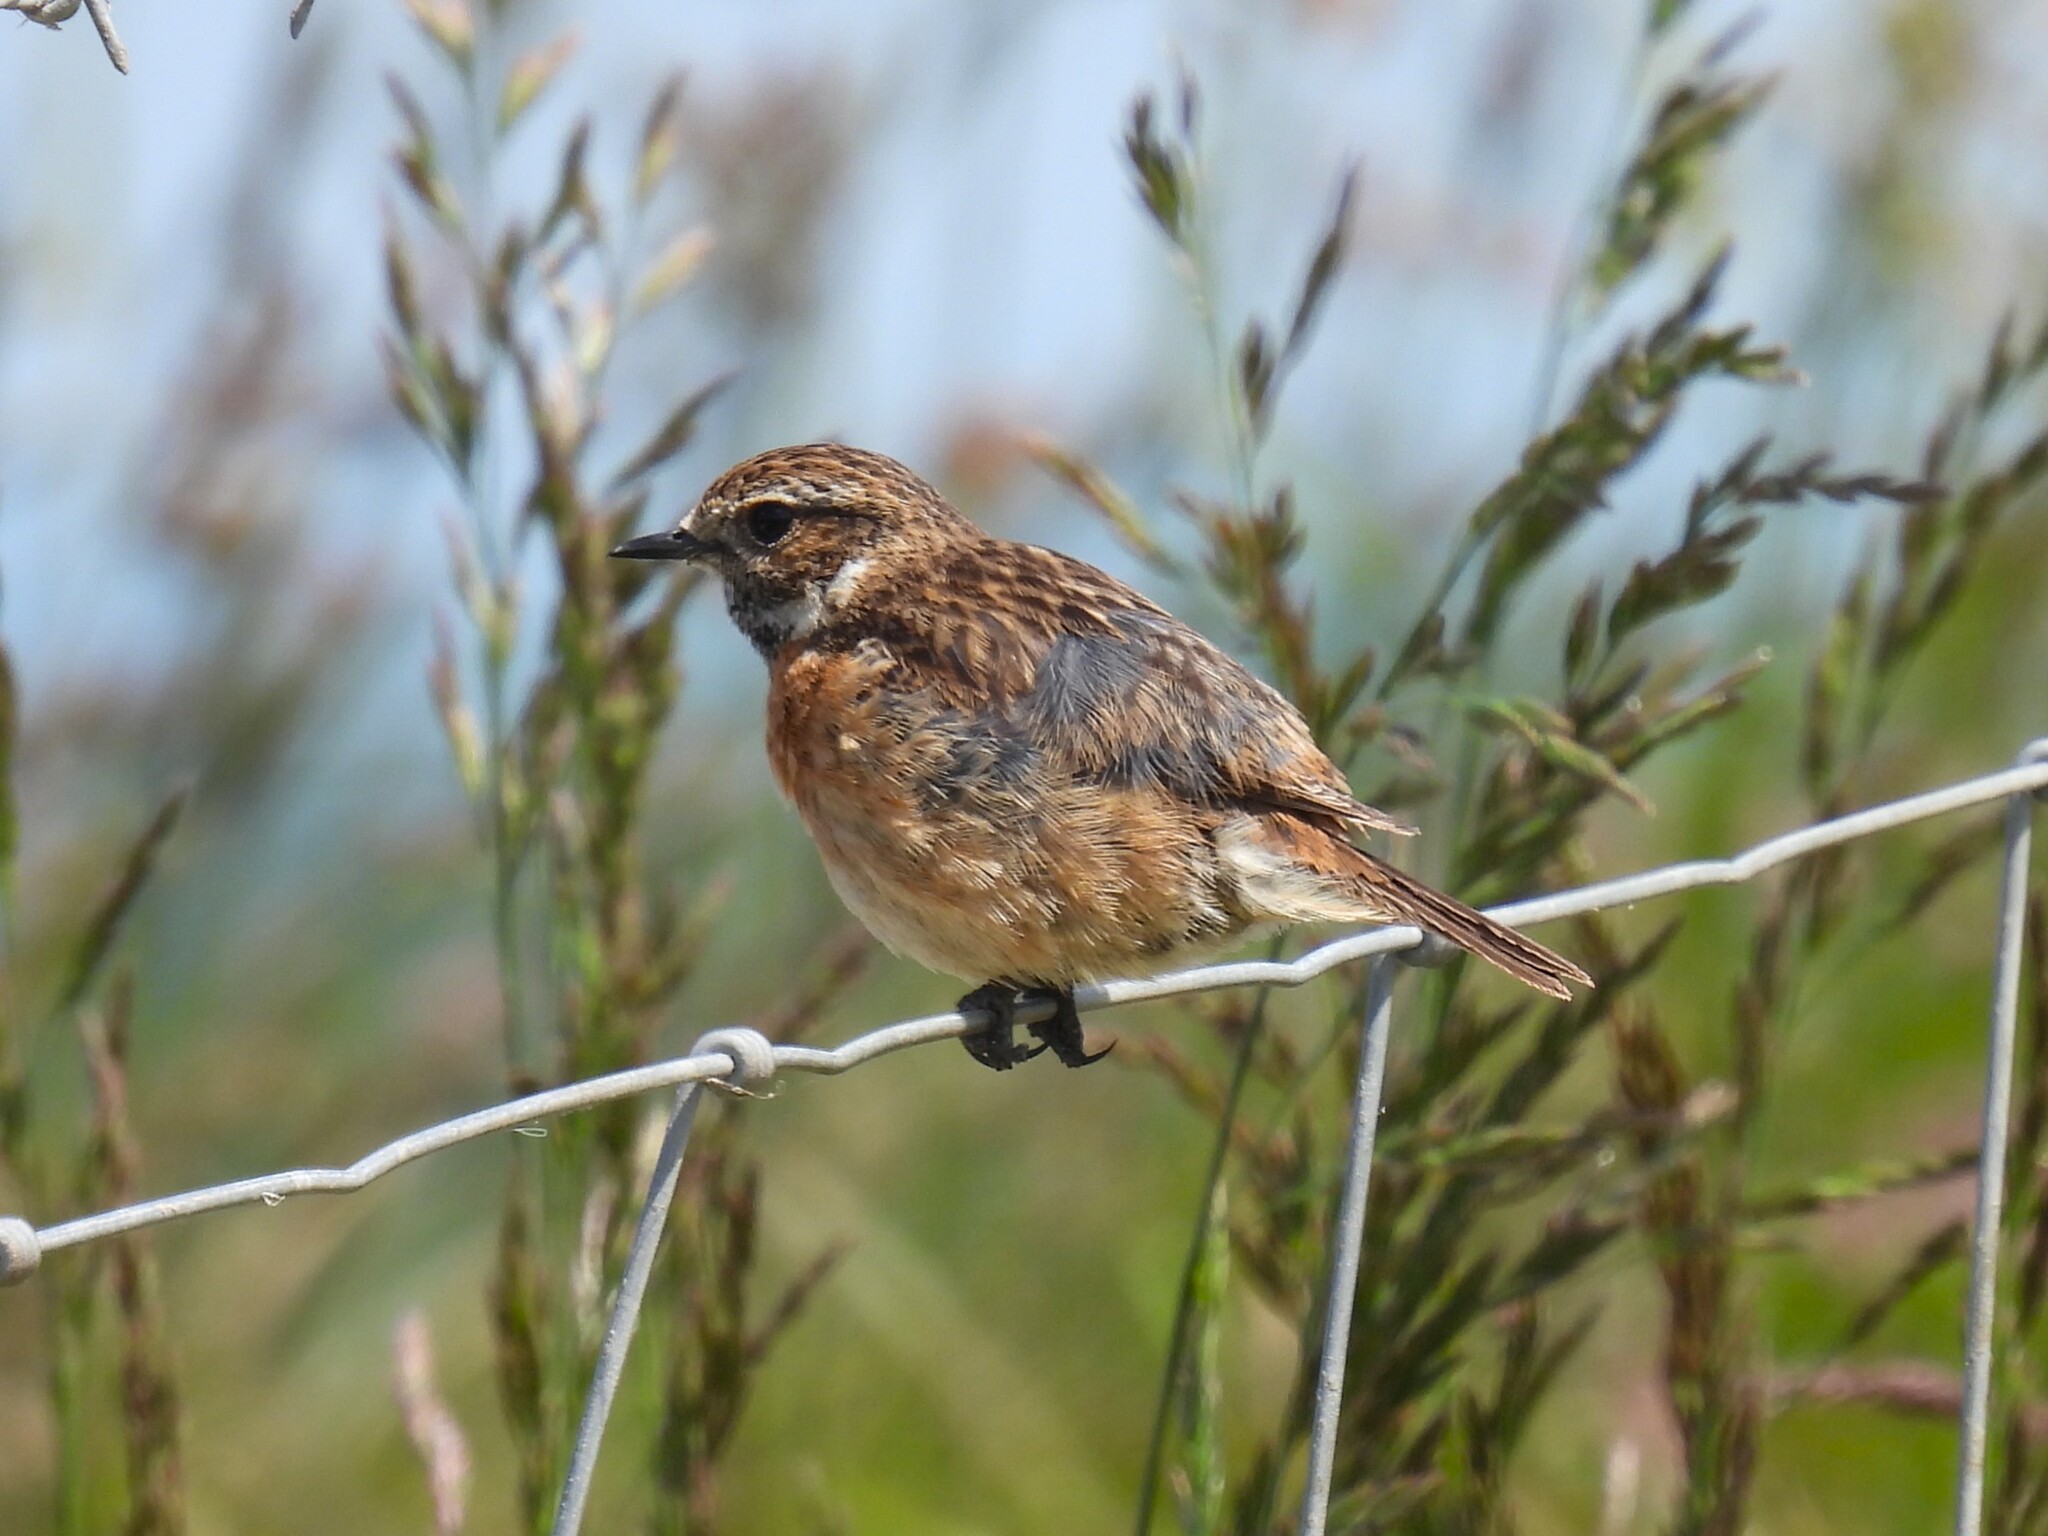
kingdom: Animalia
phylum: Chordata
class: Aves
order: Passeriformes
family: Muscicapidae
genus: Saxicola
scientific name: Saxicola rubicola
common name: European stonechat
